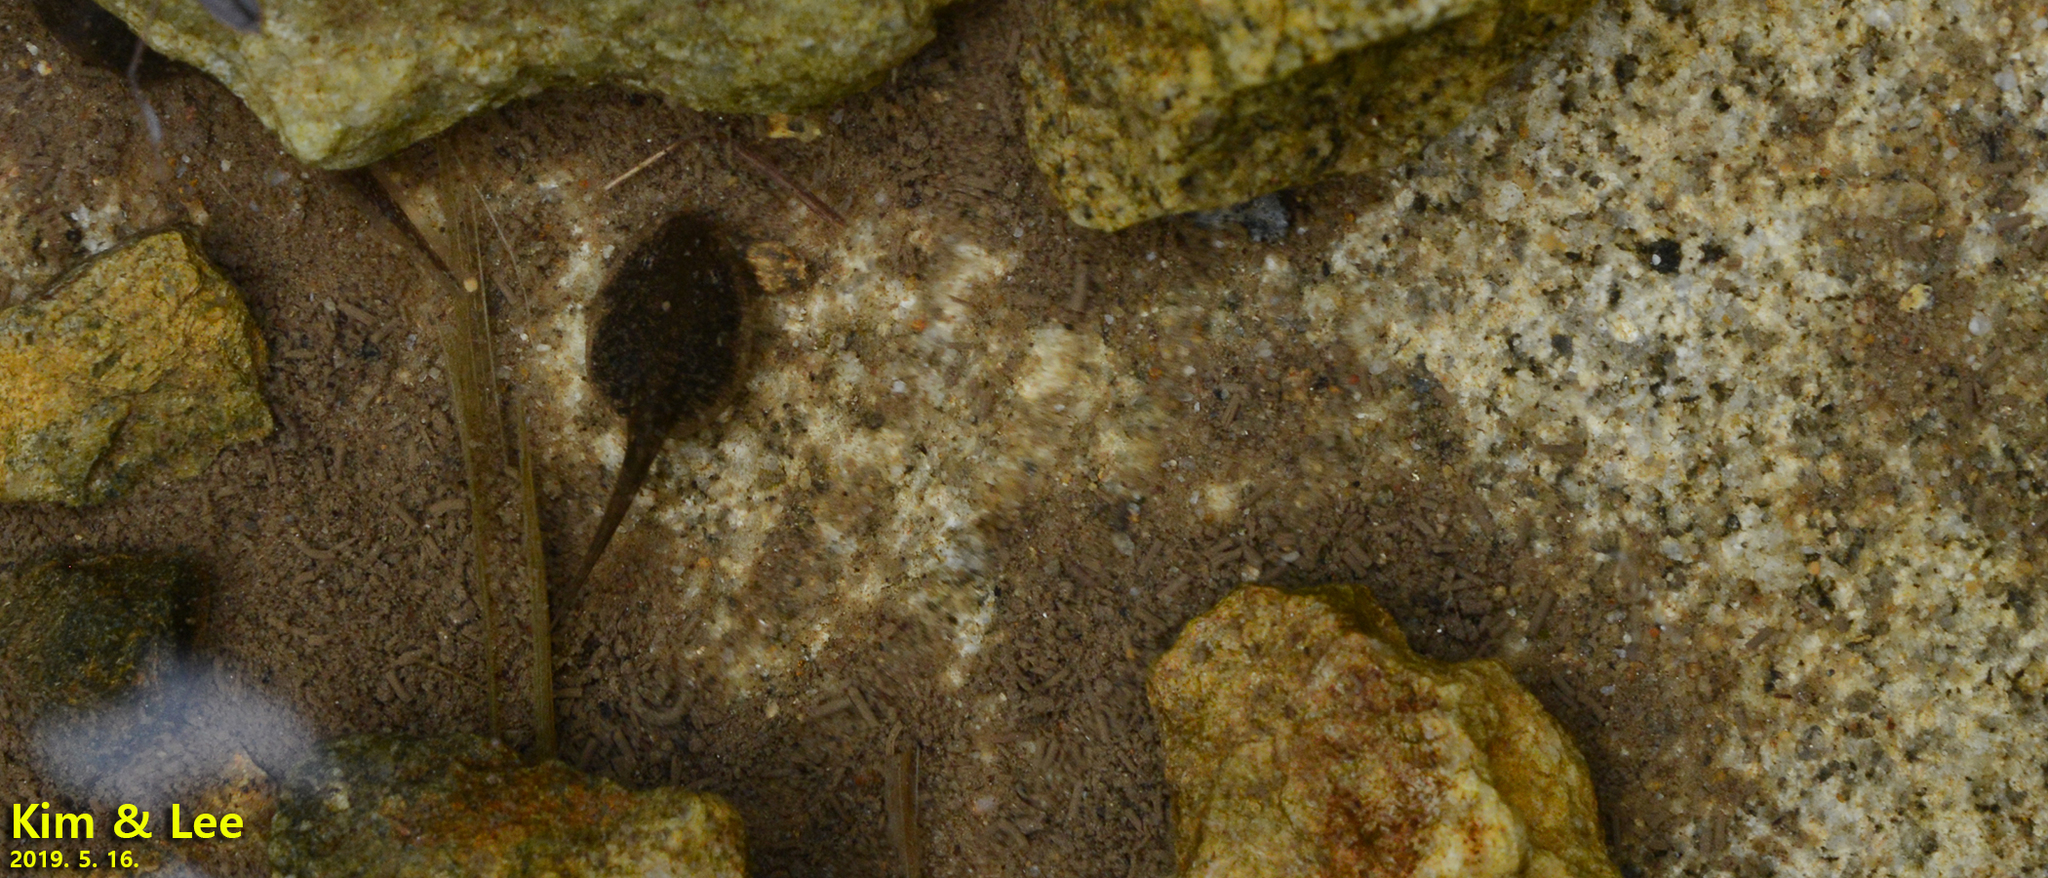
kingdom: Animalia
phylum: Chordata
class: Amphibia
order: Anura
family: Ranidae
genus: Rana
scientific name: Rana huanrenensis
